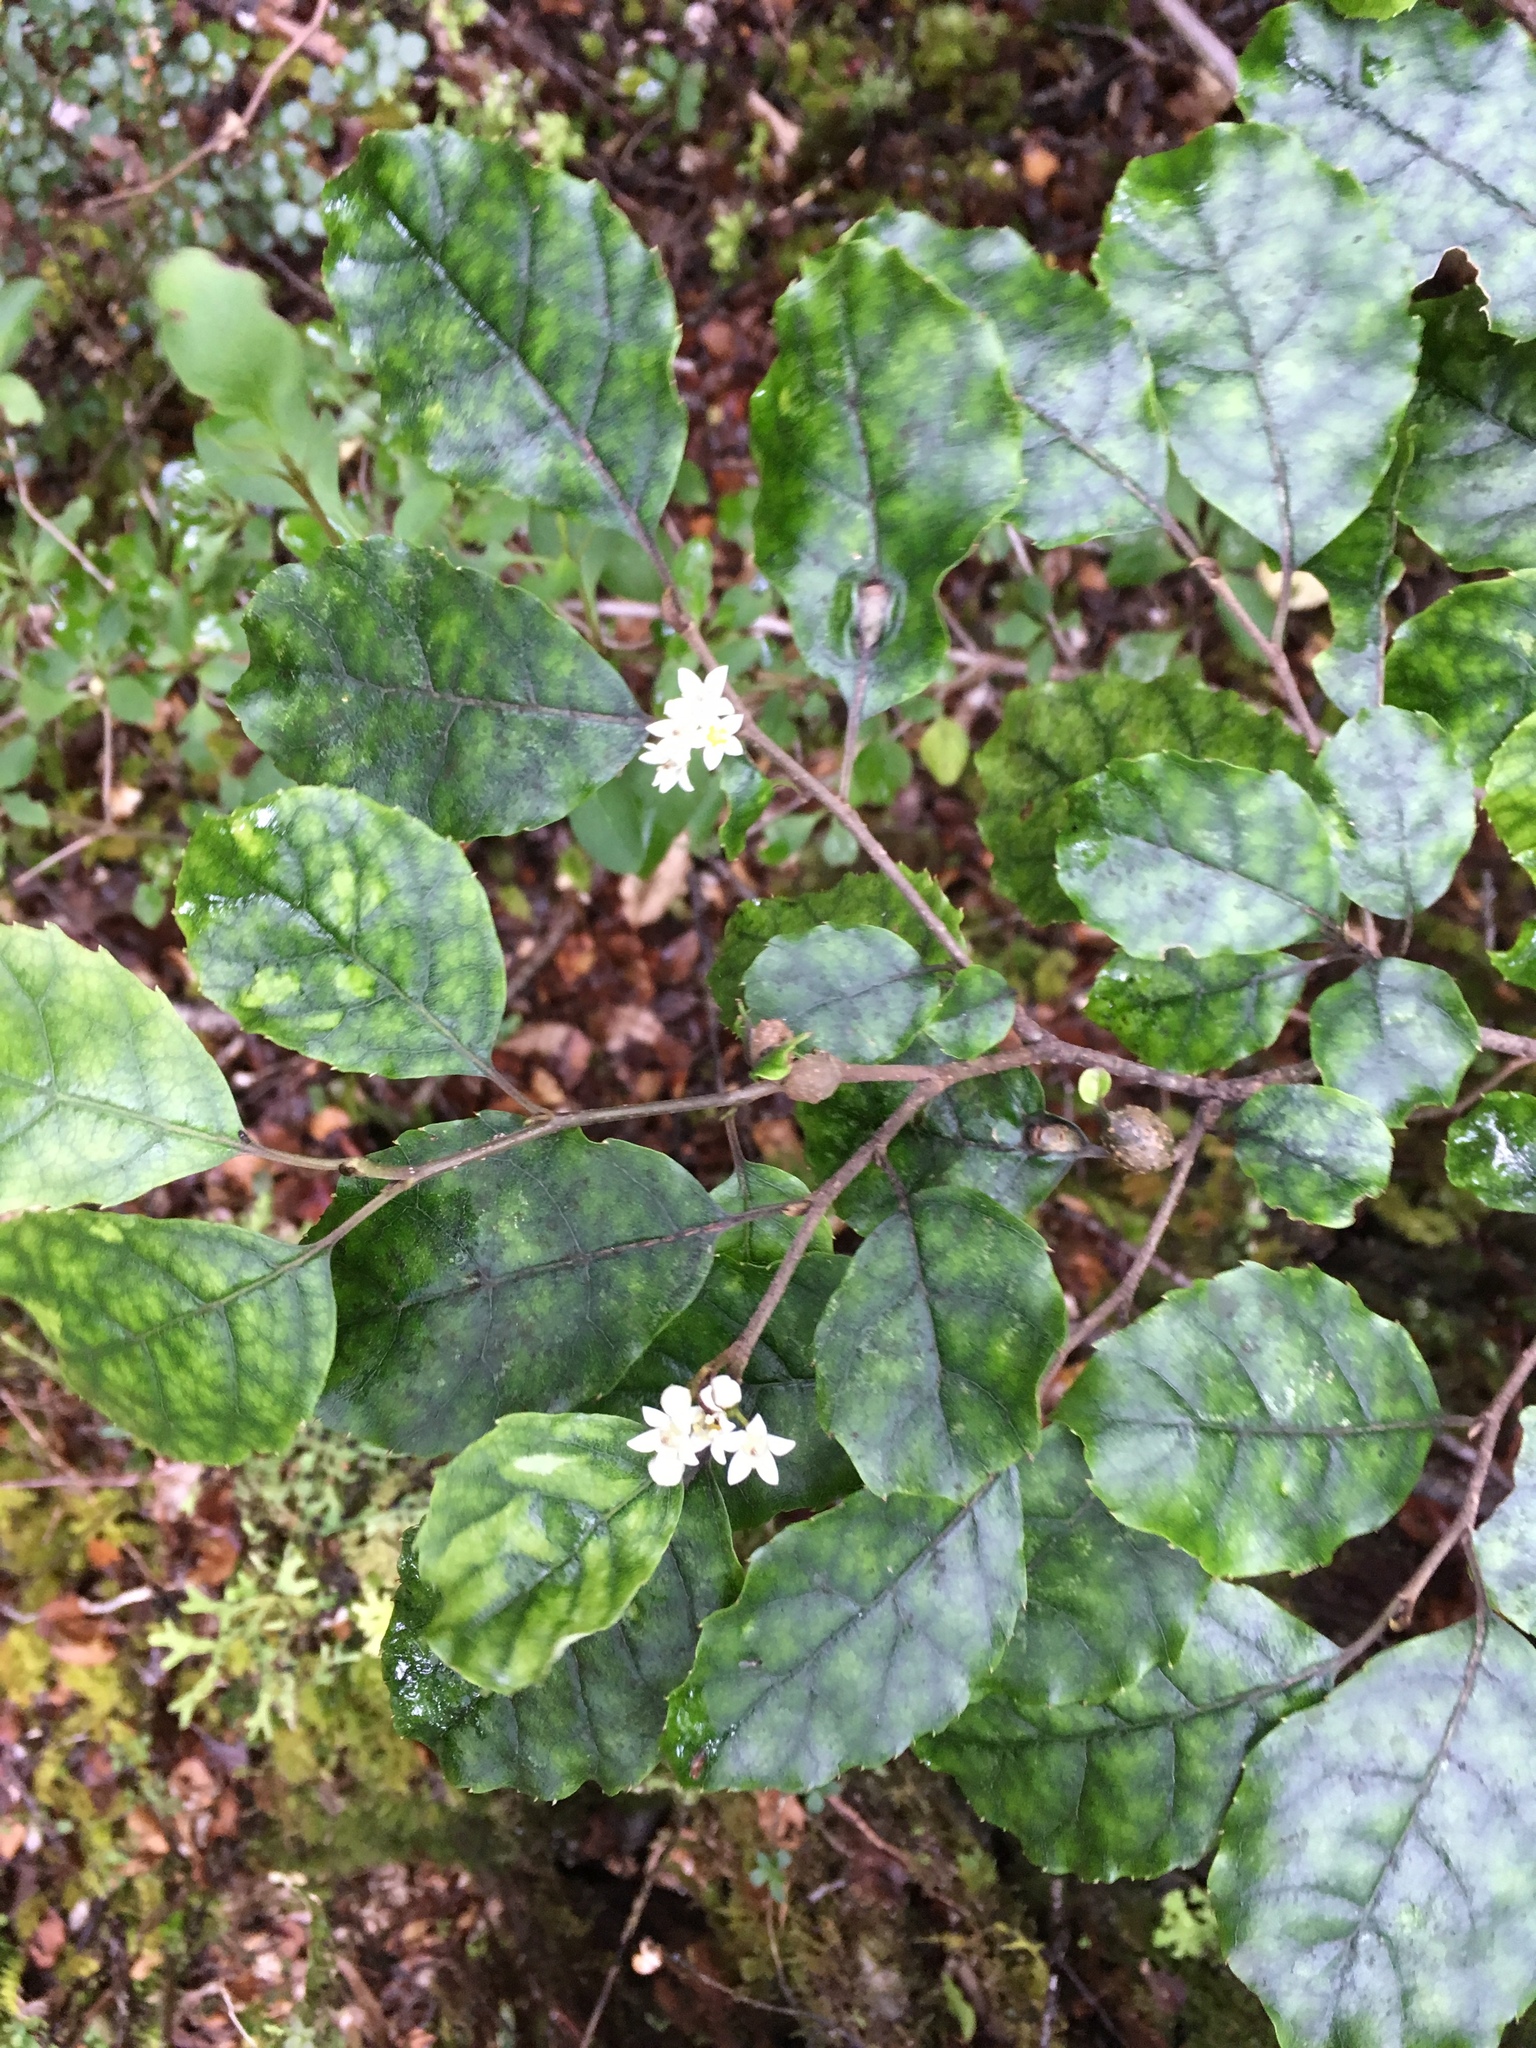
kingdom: Plantae
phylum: Tracheophyta
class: Magnoliopsida
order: Asterales
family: Rousseaceae
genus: Carpodetus
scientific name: Carpodetus serratus
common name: White mapau
